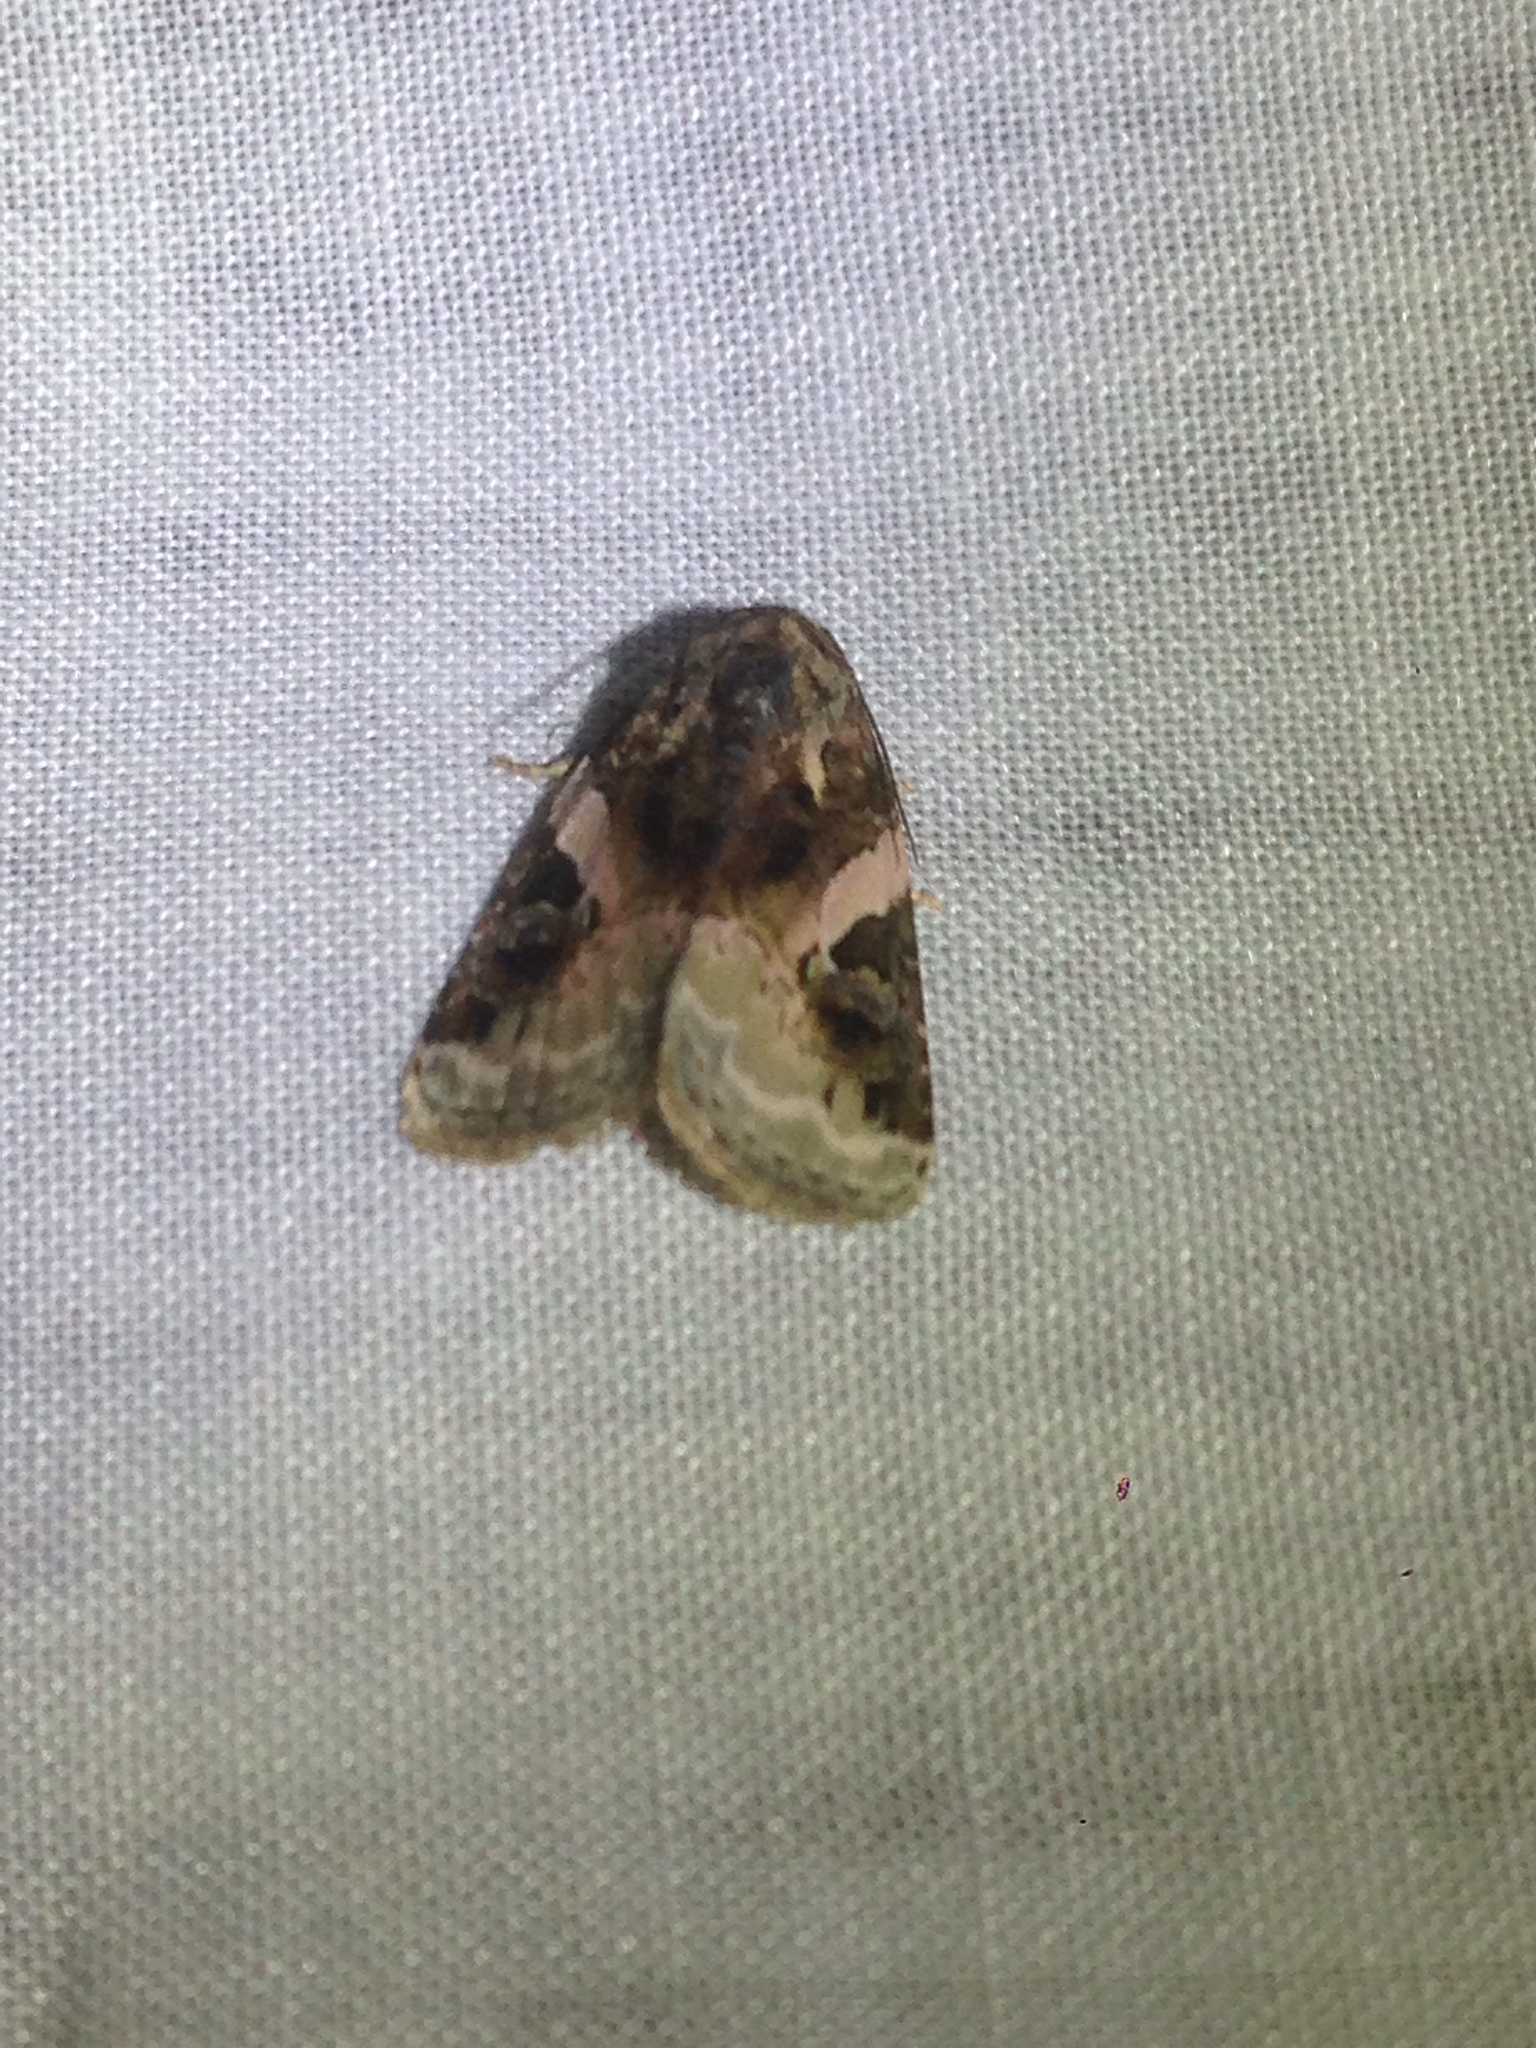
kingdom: Animalia
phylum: Arthropoda
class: Insecta
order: Lepidoptera
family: Noctuidae
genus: Pseudeustrotia
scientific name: Pseudeustrotia carneola
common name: Pink-barred lithacodia moth
